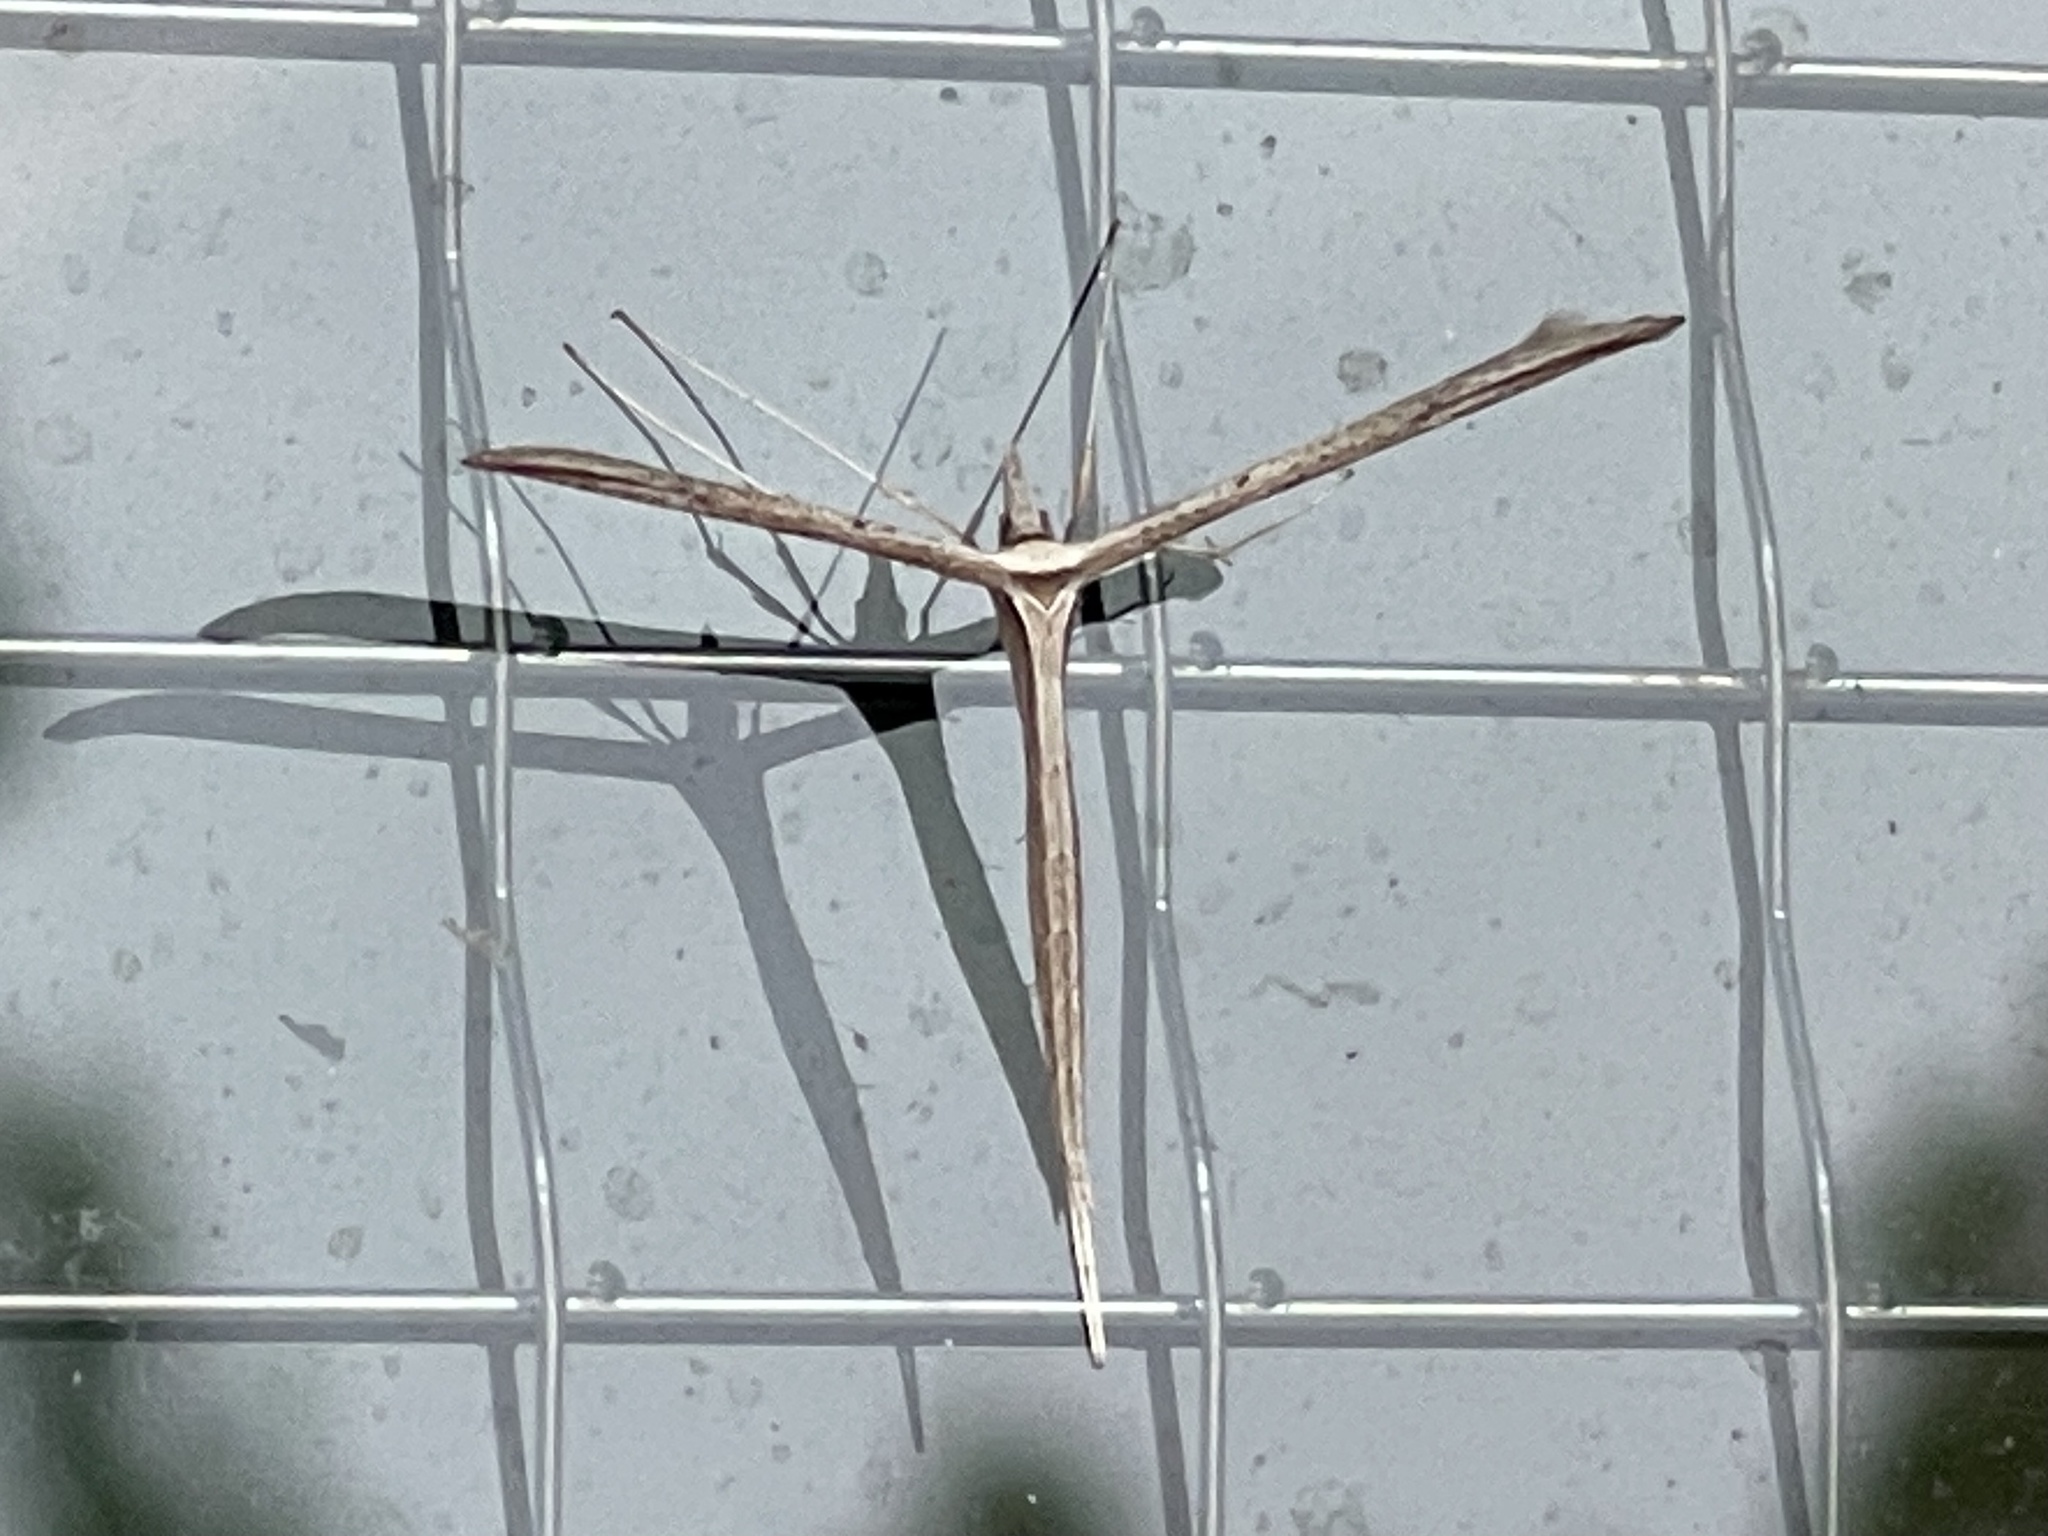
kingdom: Animalia
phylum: Arthropoda
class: Insecta
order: Lepidoptera
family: Pterophoridae
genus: Hellinsia
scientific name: Hellinsia longifrons
